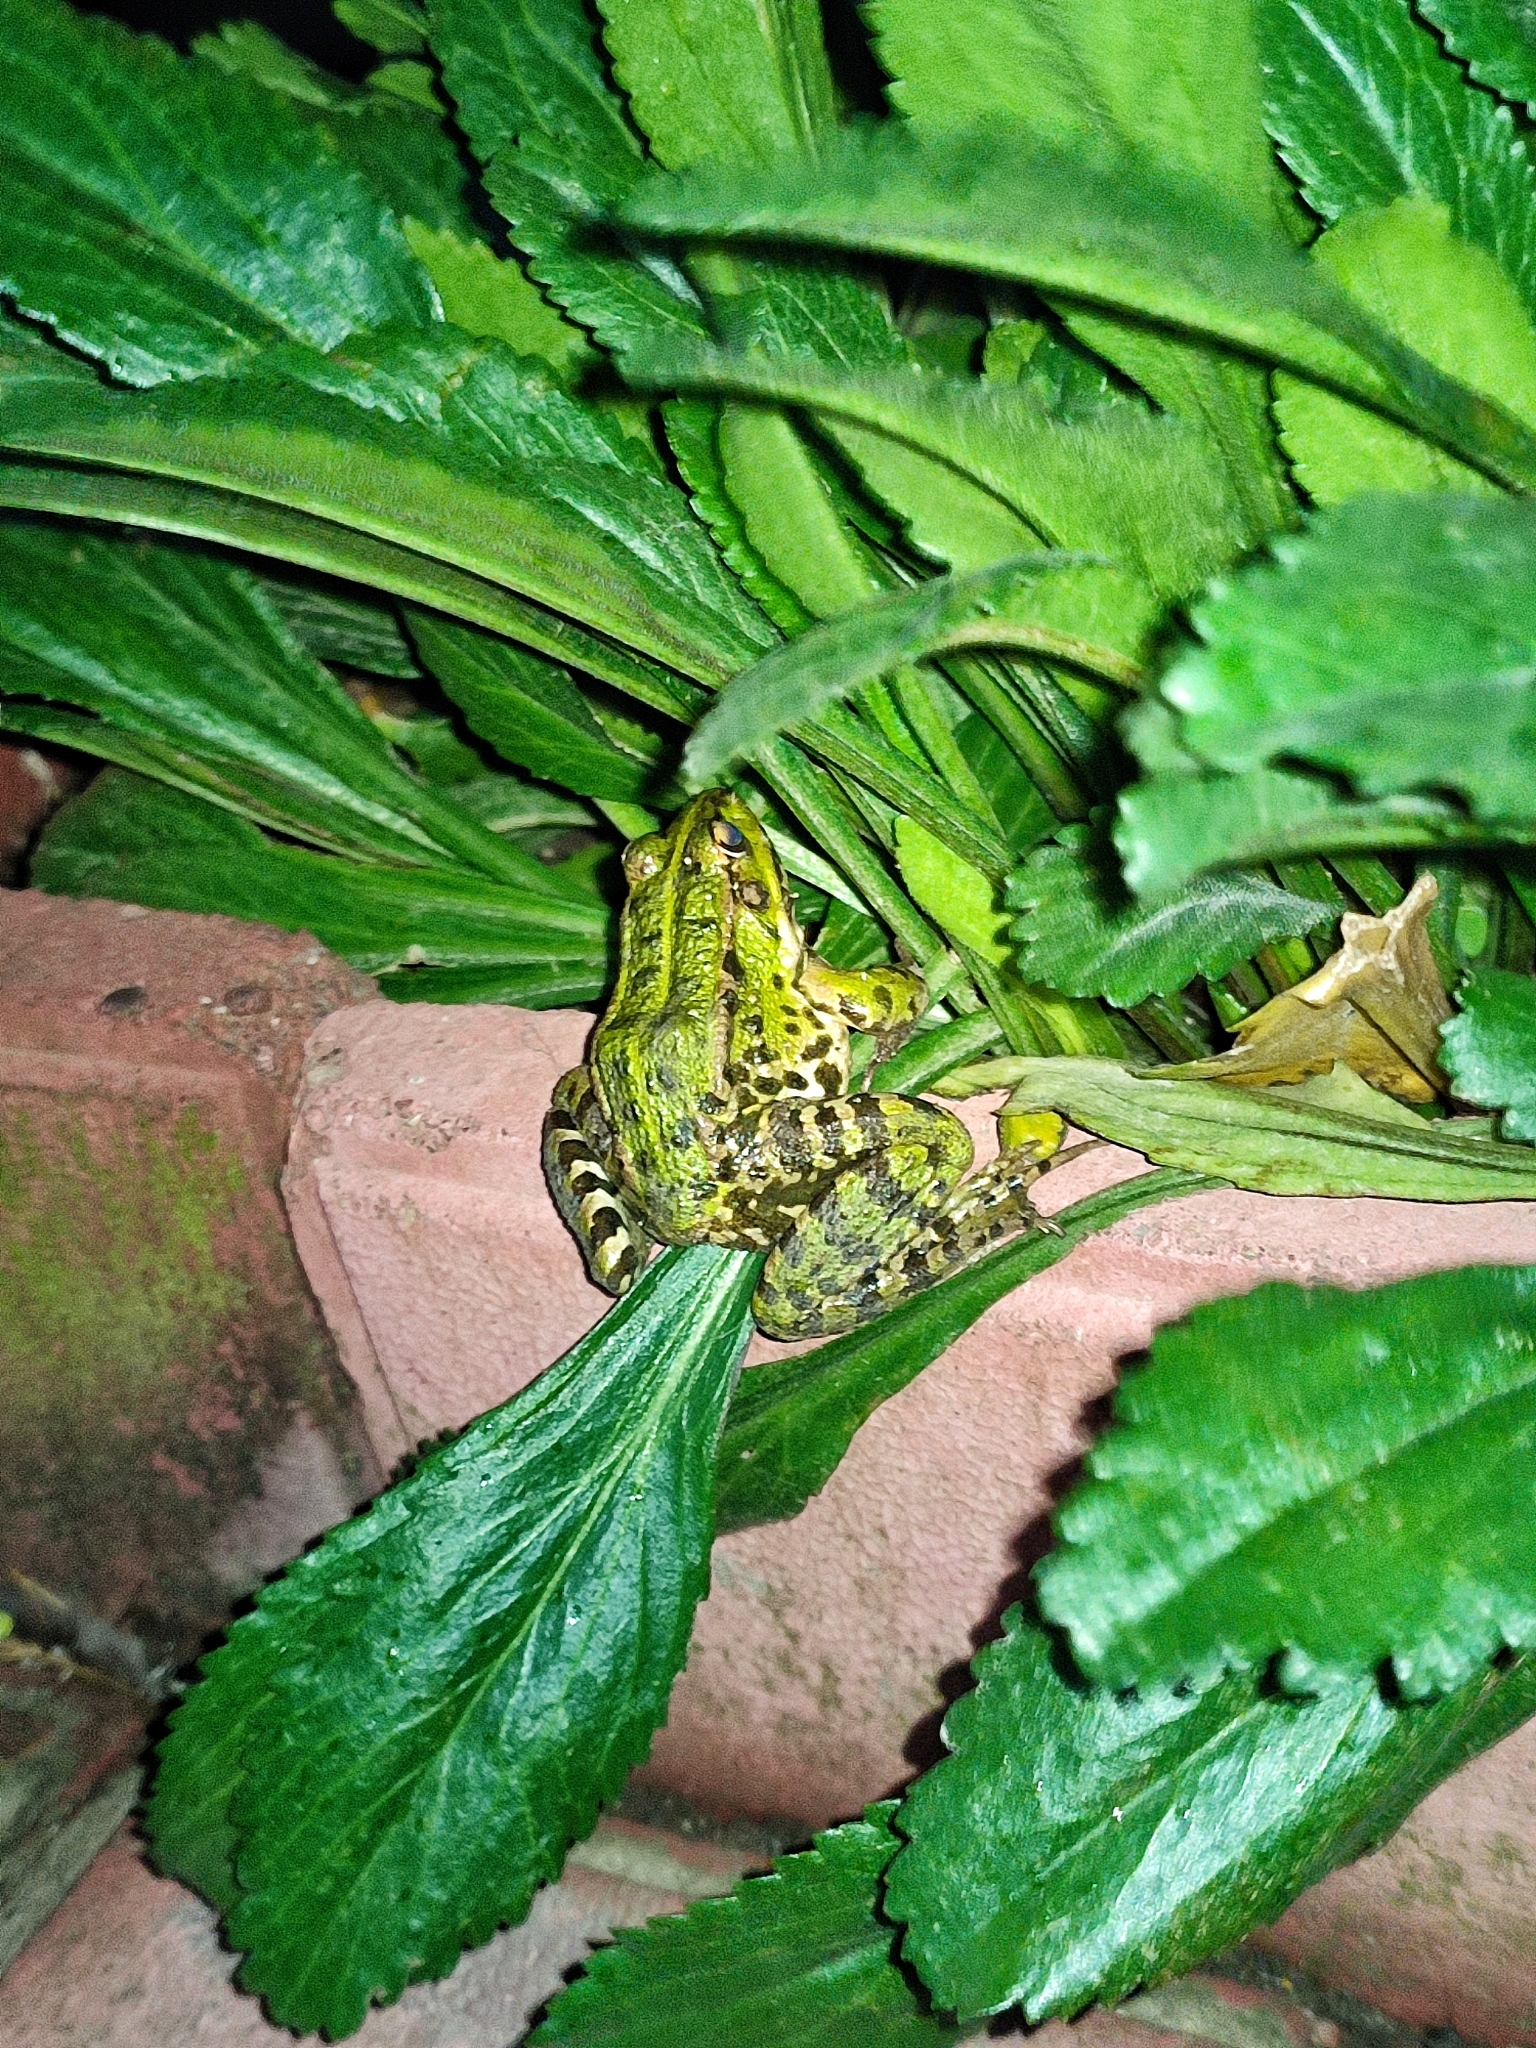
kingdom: Animalia
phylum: Chordata
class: Amphibia
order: Anura
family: Ranidae
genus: Pelophylax
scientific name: Pelophylax ridibundus
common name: Marsh frog
